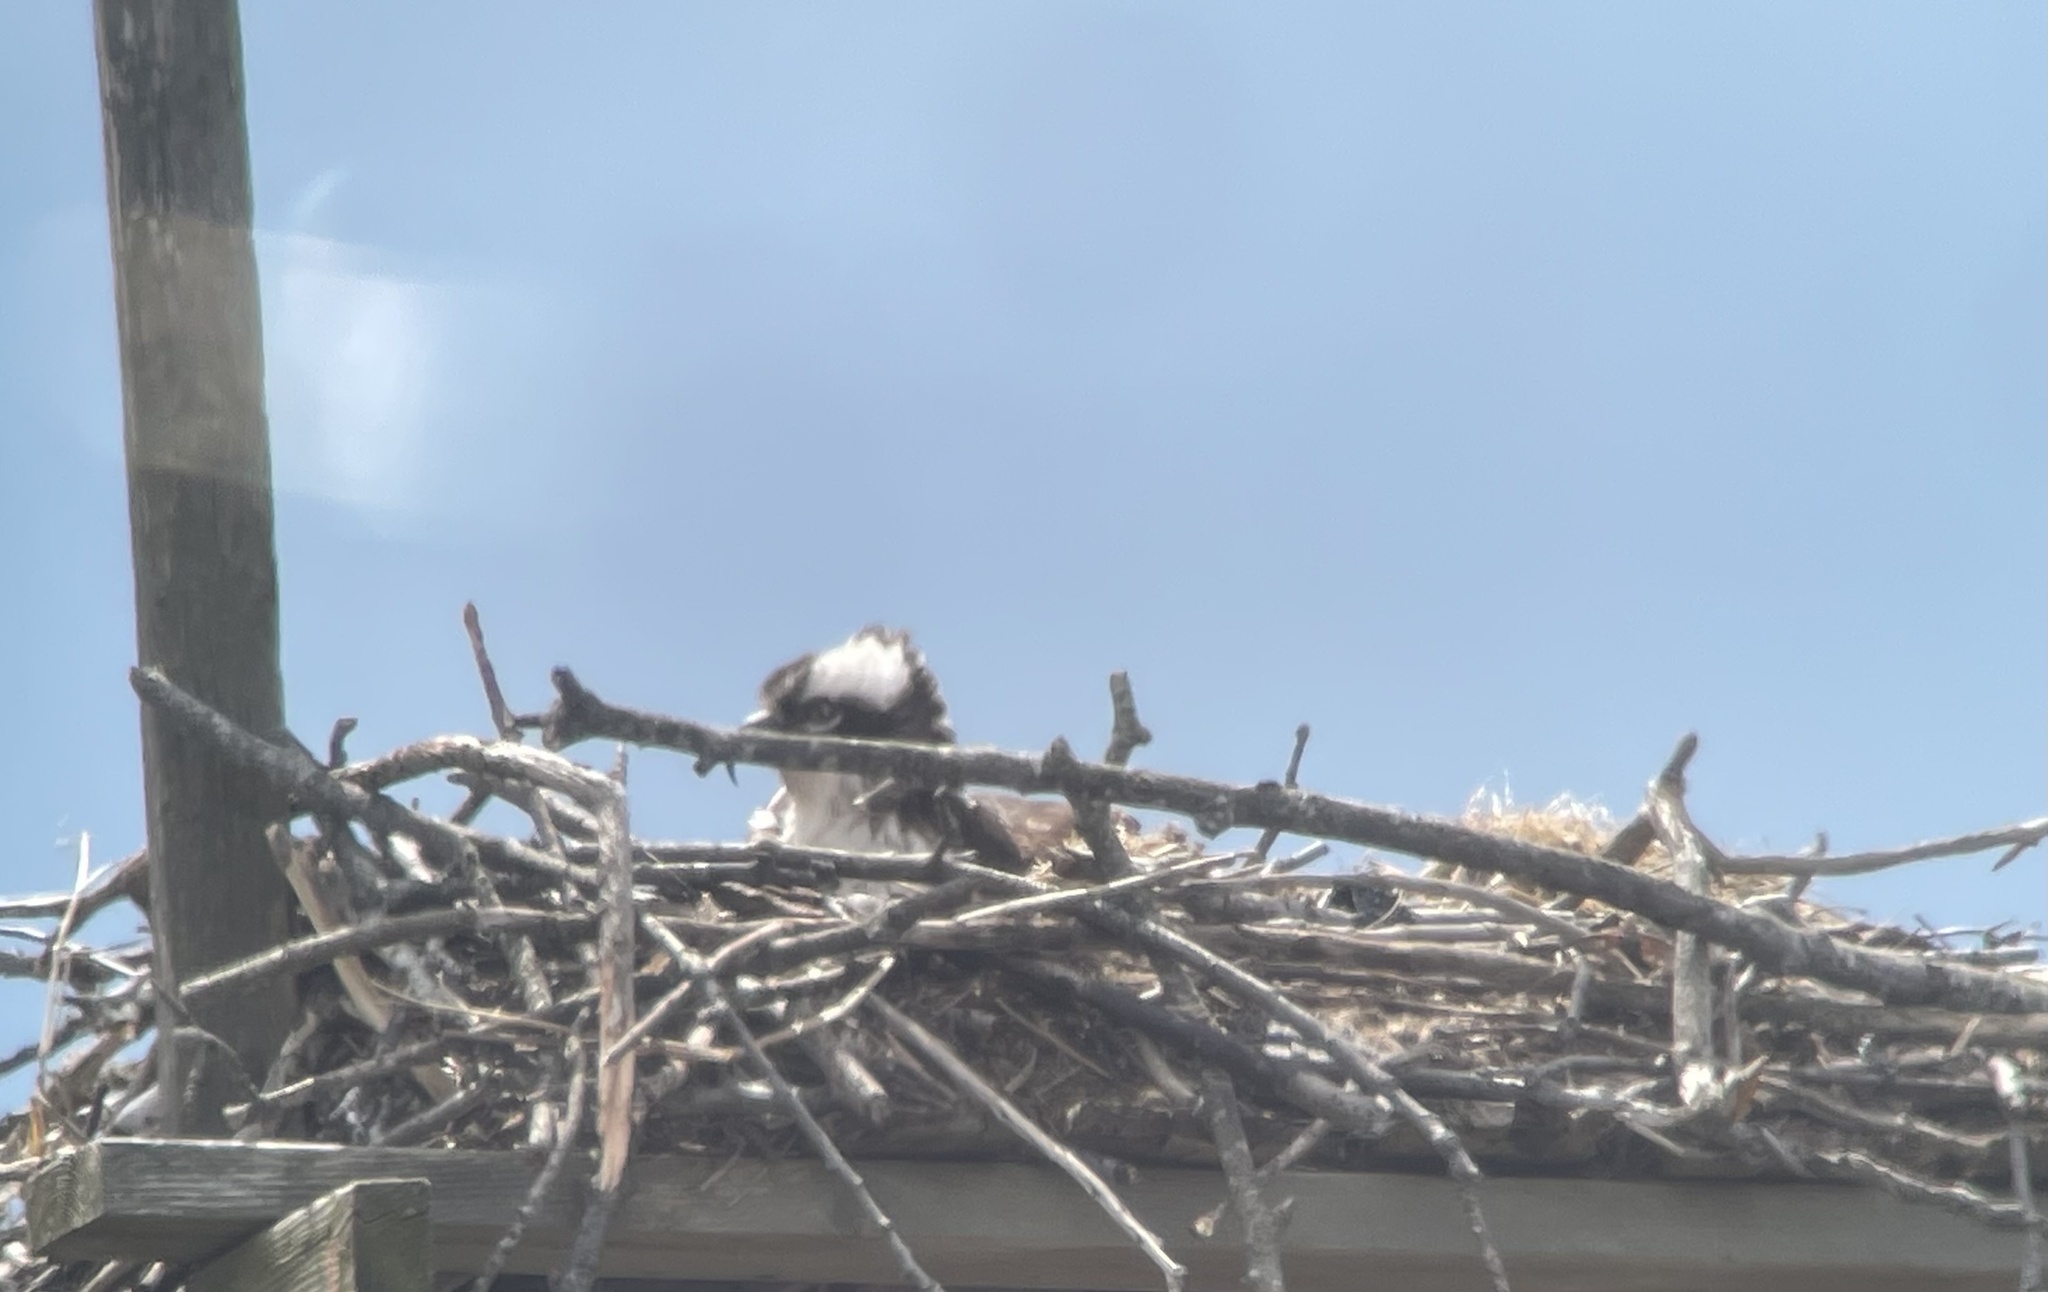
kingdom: Animalia
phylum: Chordata
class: Aves
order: Accipitriformes
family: Pandionidae
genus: Pandion
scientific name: Pandion haliaetus
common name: Osprey
